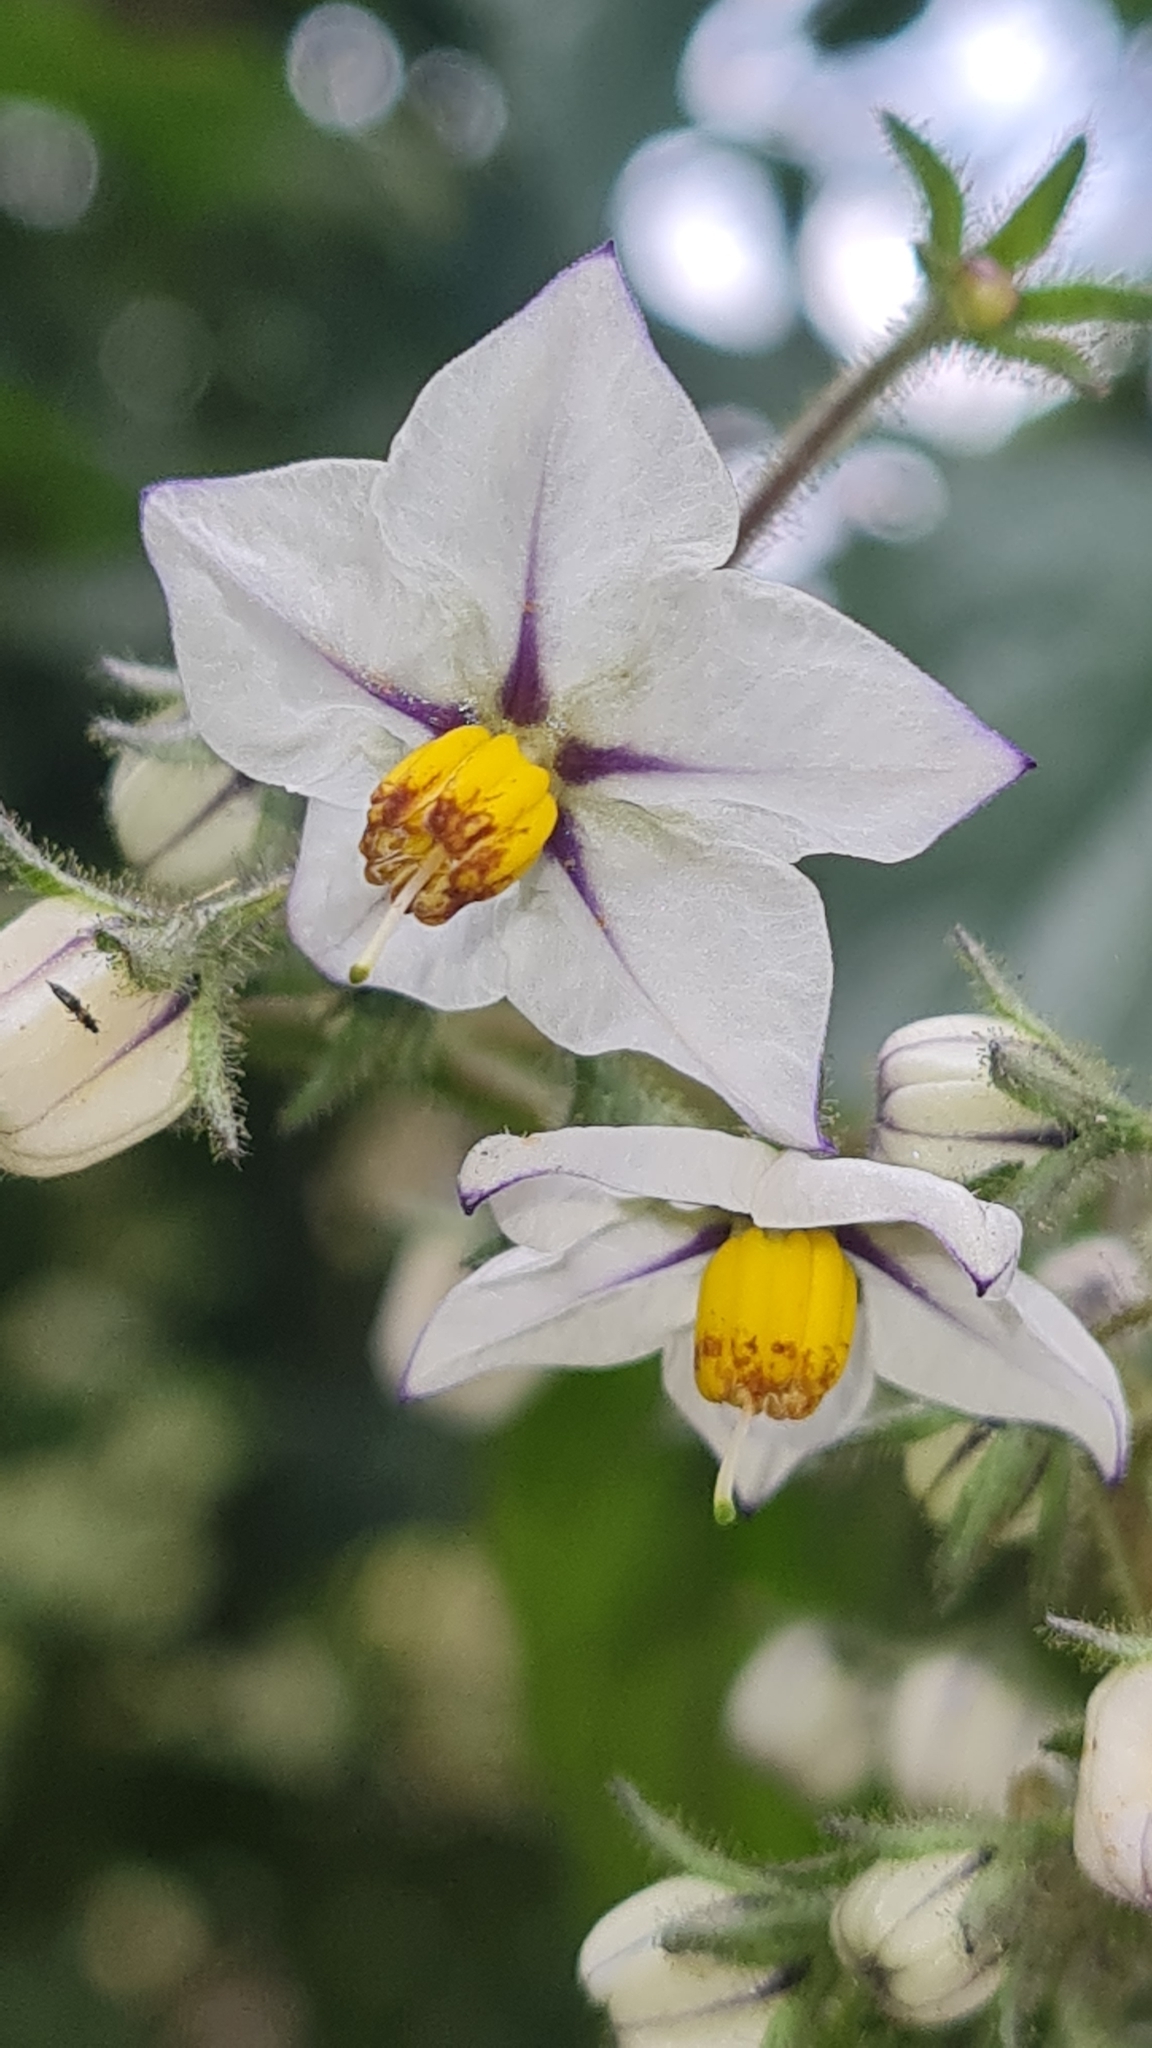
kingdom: Plantae
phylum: Tracheophyta
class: Magnoliopsida
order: Solanales
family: Solanaceae
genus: Solanum
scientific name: Solanum concinnum
